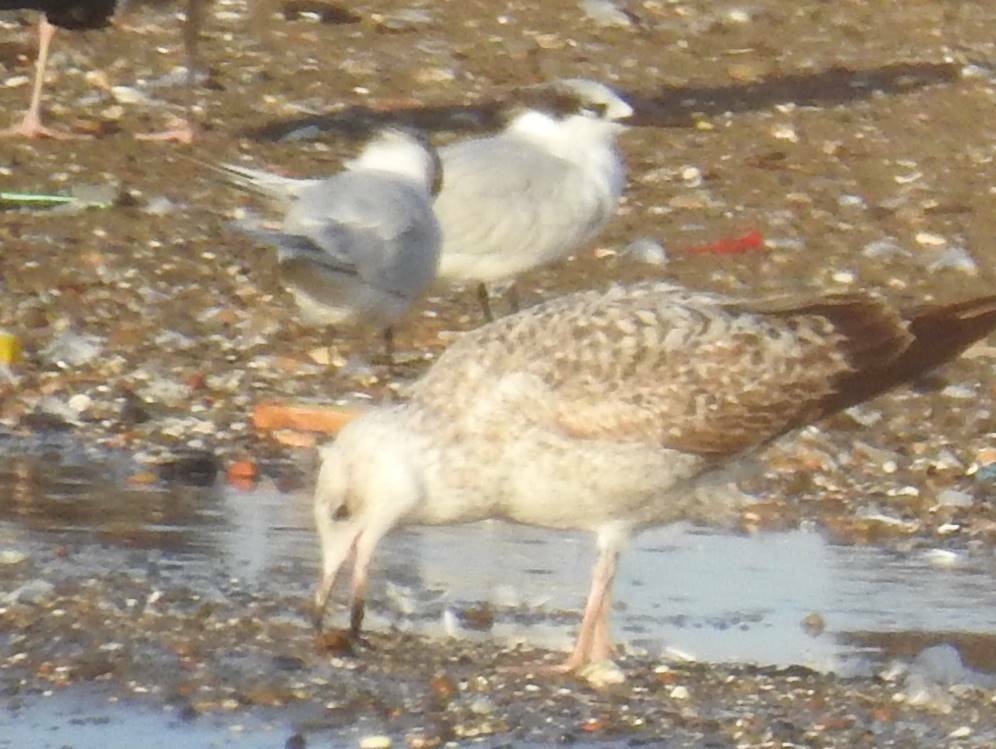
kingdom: Animalia
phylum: Chordata
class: Aves
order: Charadriiformes
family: Laridae
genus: Larus
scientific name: Larus michahellis
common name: Yellow-legged gull
